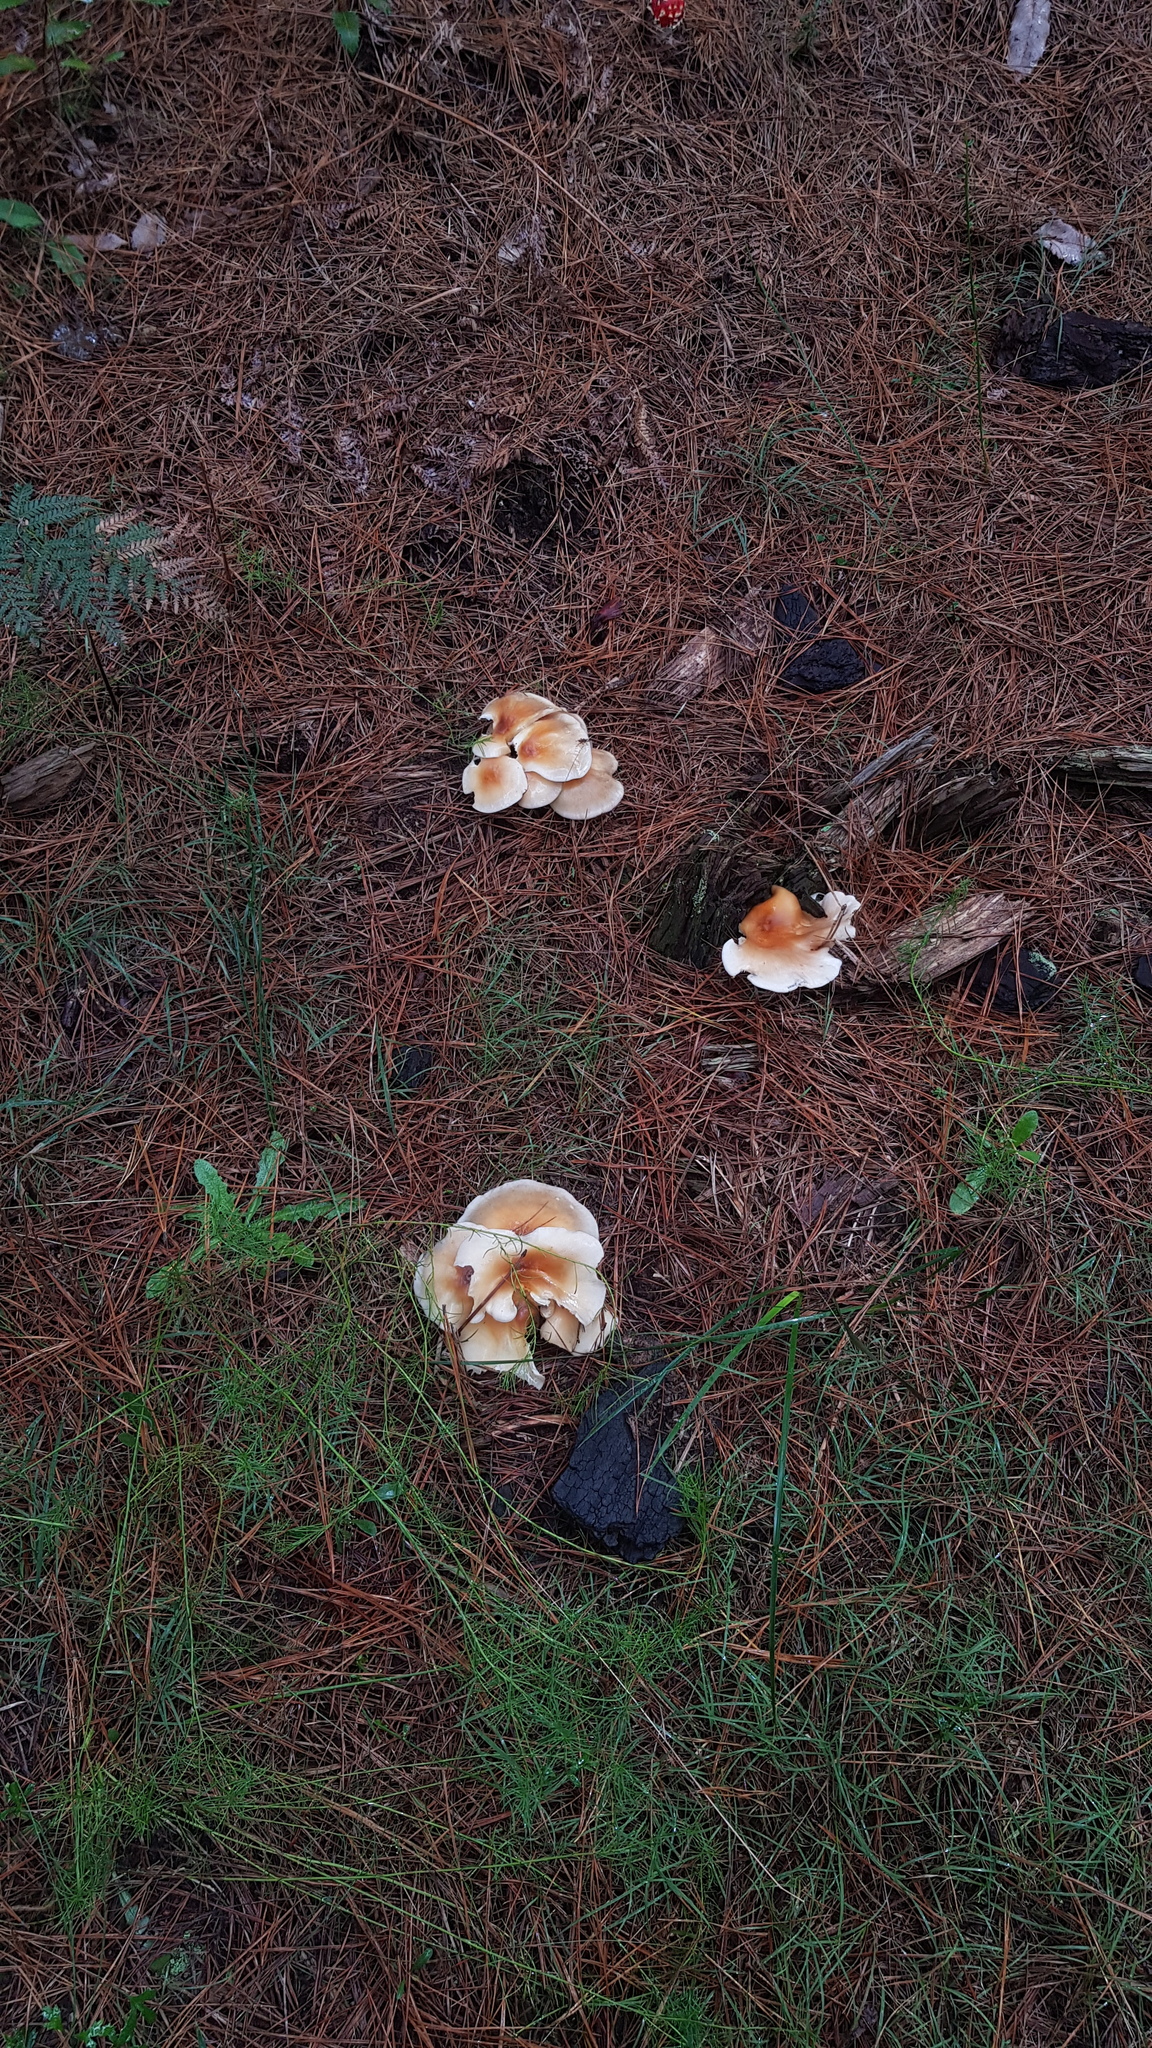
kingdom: Fungi
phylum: Basidiomycota
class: Agaricomycetes
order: Agaricales
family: Omphalotaceae
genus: Omphalotus
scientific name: Omphalotus nidiformis
